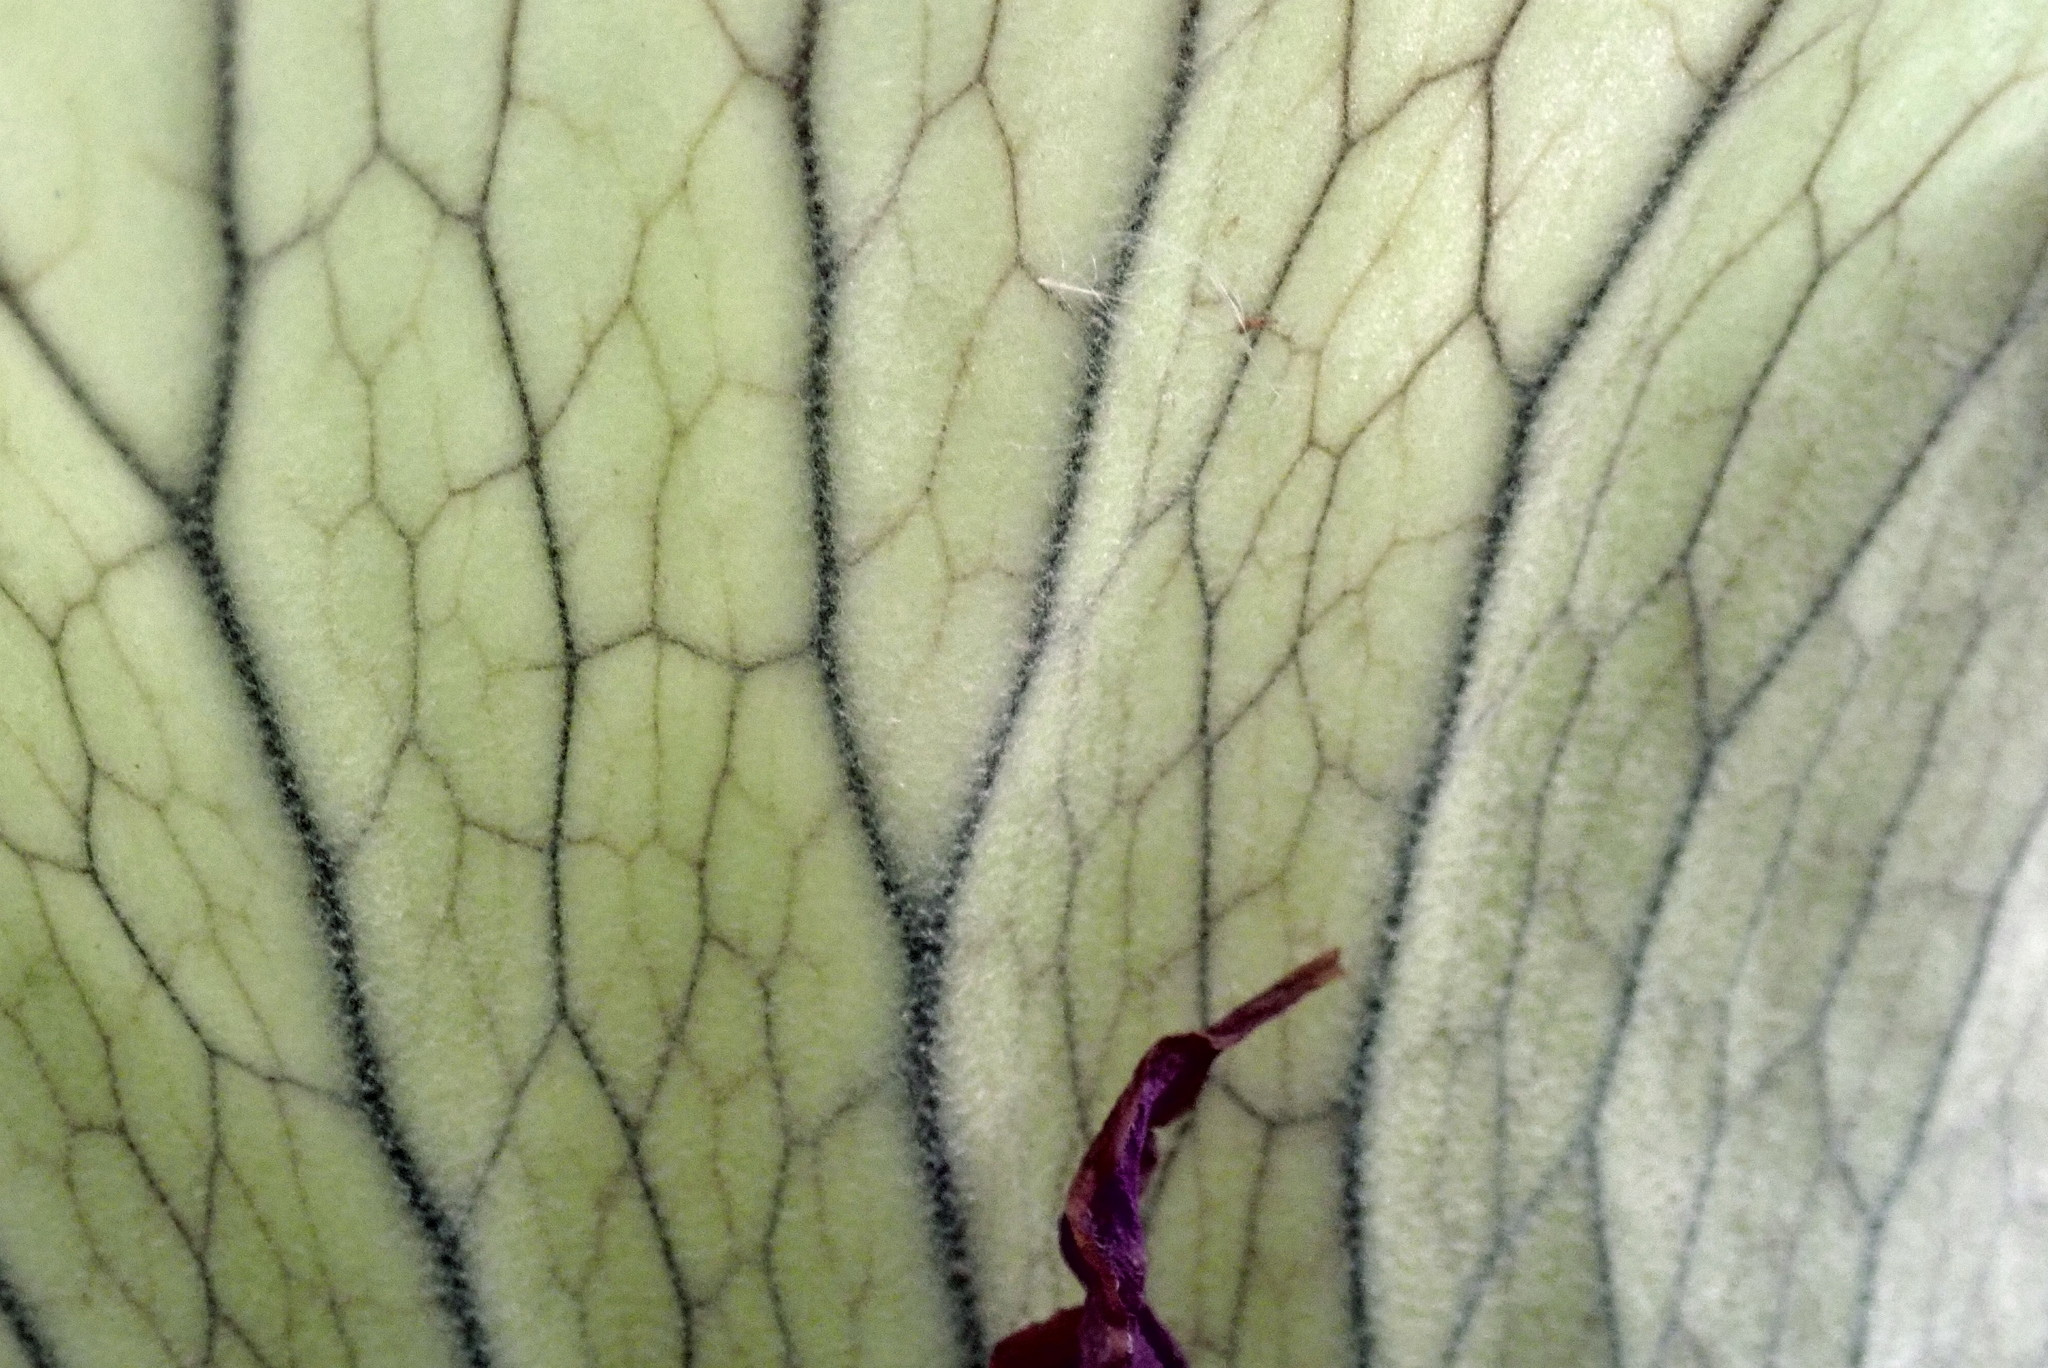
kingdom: Plantae
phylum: Tracheophyta
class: Polypodiopsida
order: Polypodiales
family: Polypodiaceae
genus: Platycerium
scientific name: Platycerium bifurcatum
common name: Elkhorn fern
